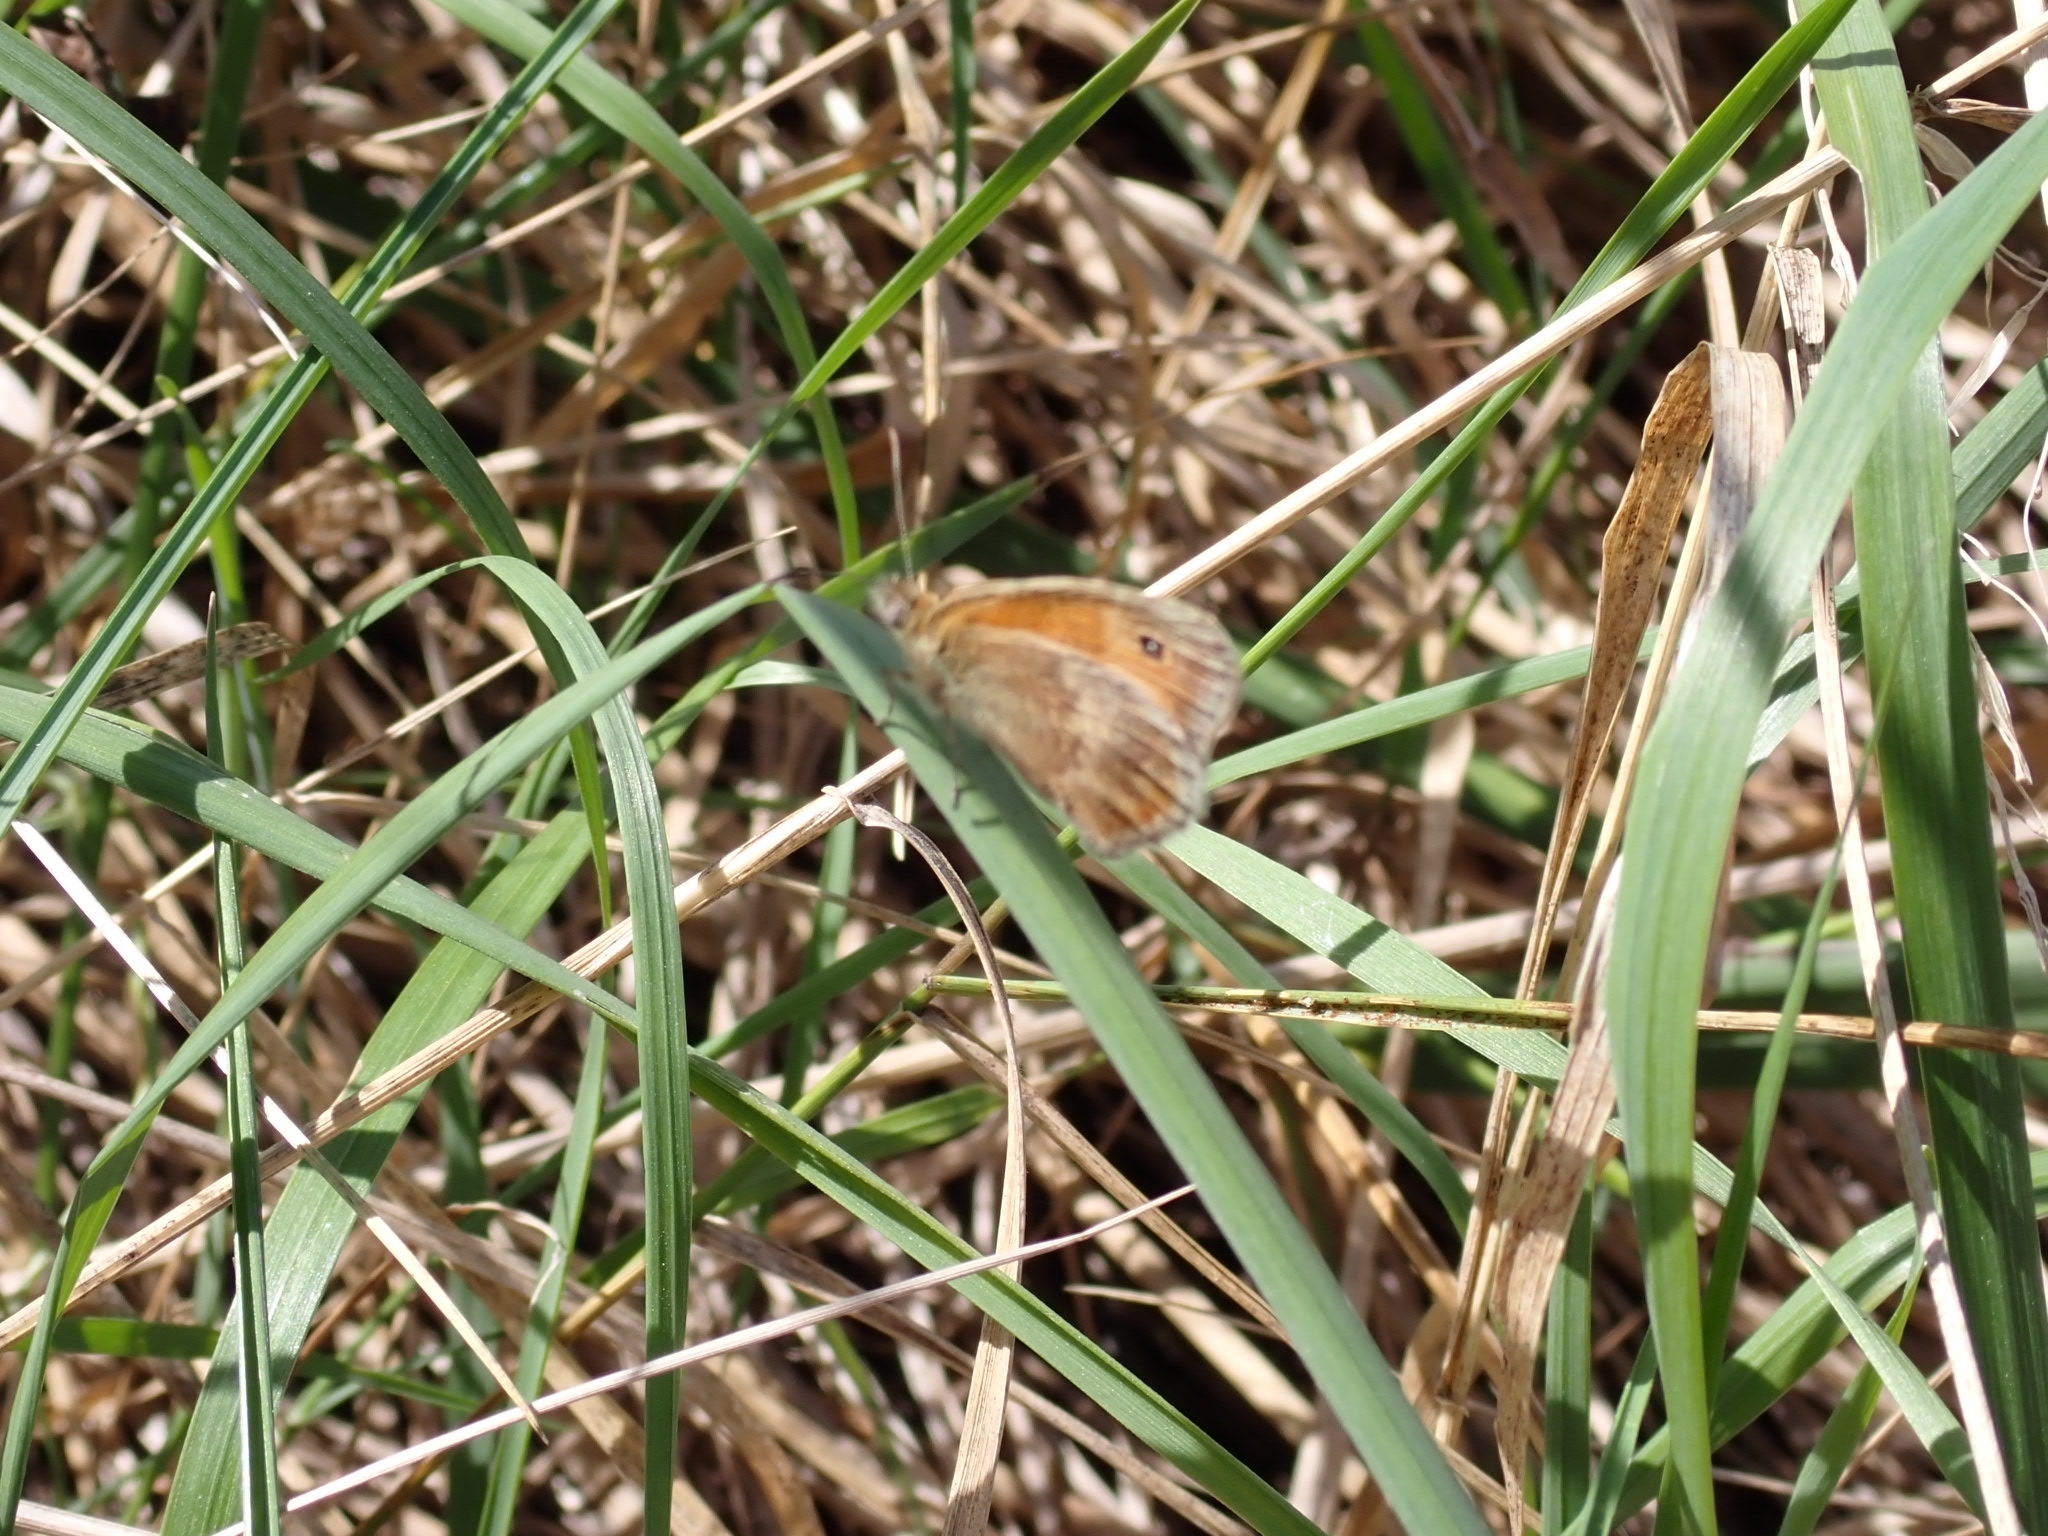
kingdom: Animalia
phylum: Arthropoda
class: Insecta
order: Lepidoptera
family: Nymphalidae
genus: Coenonympha
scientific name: Coenonympha pamphilus
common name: Small heath
